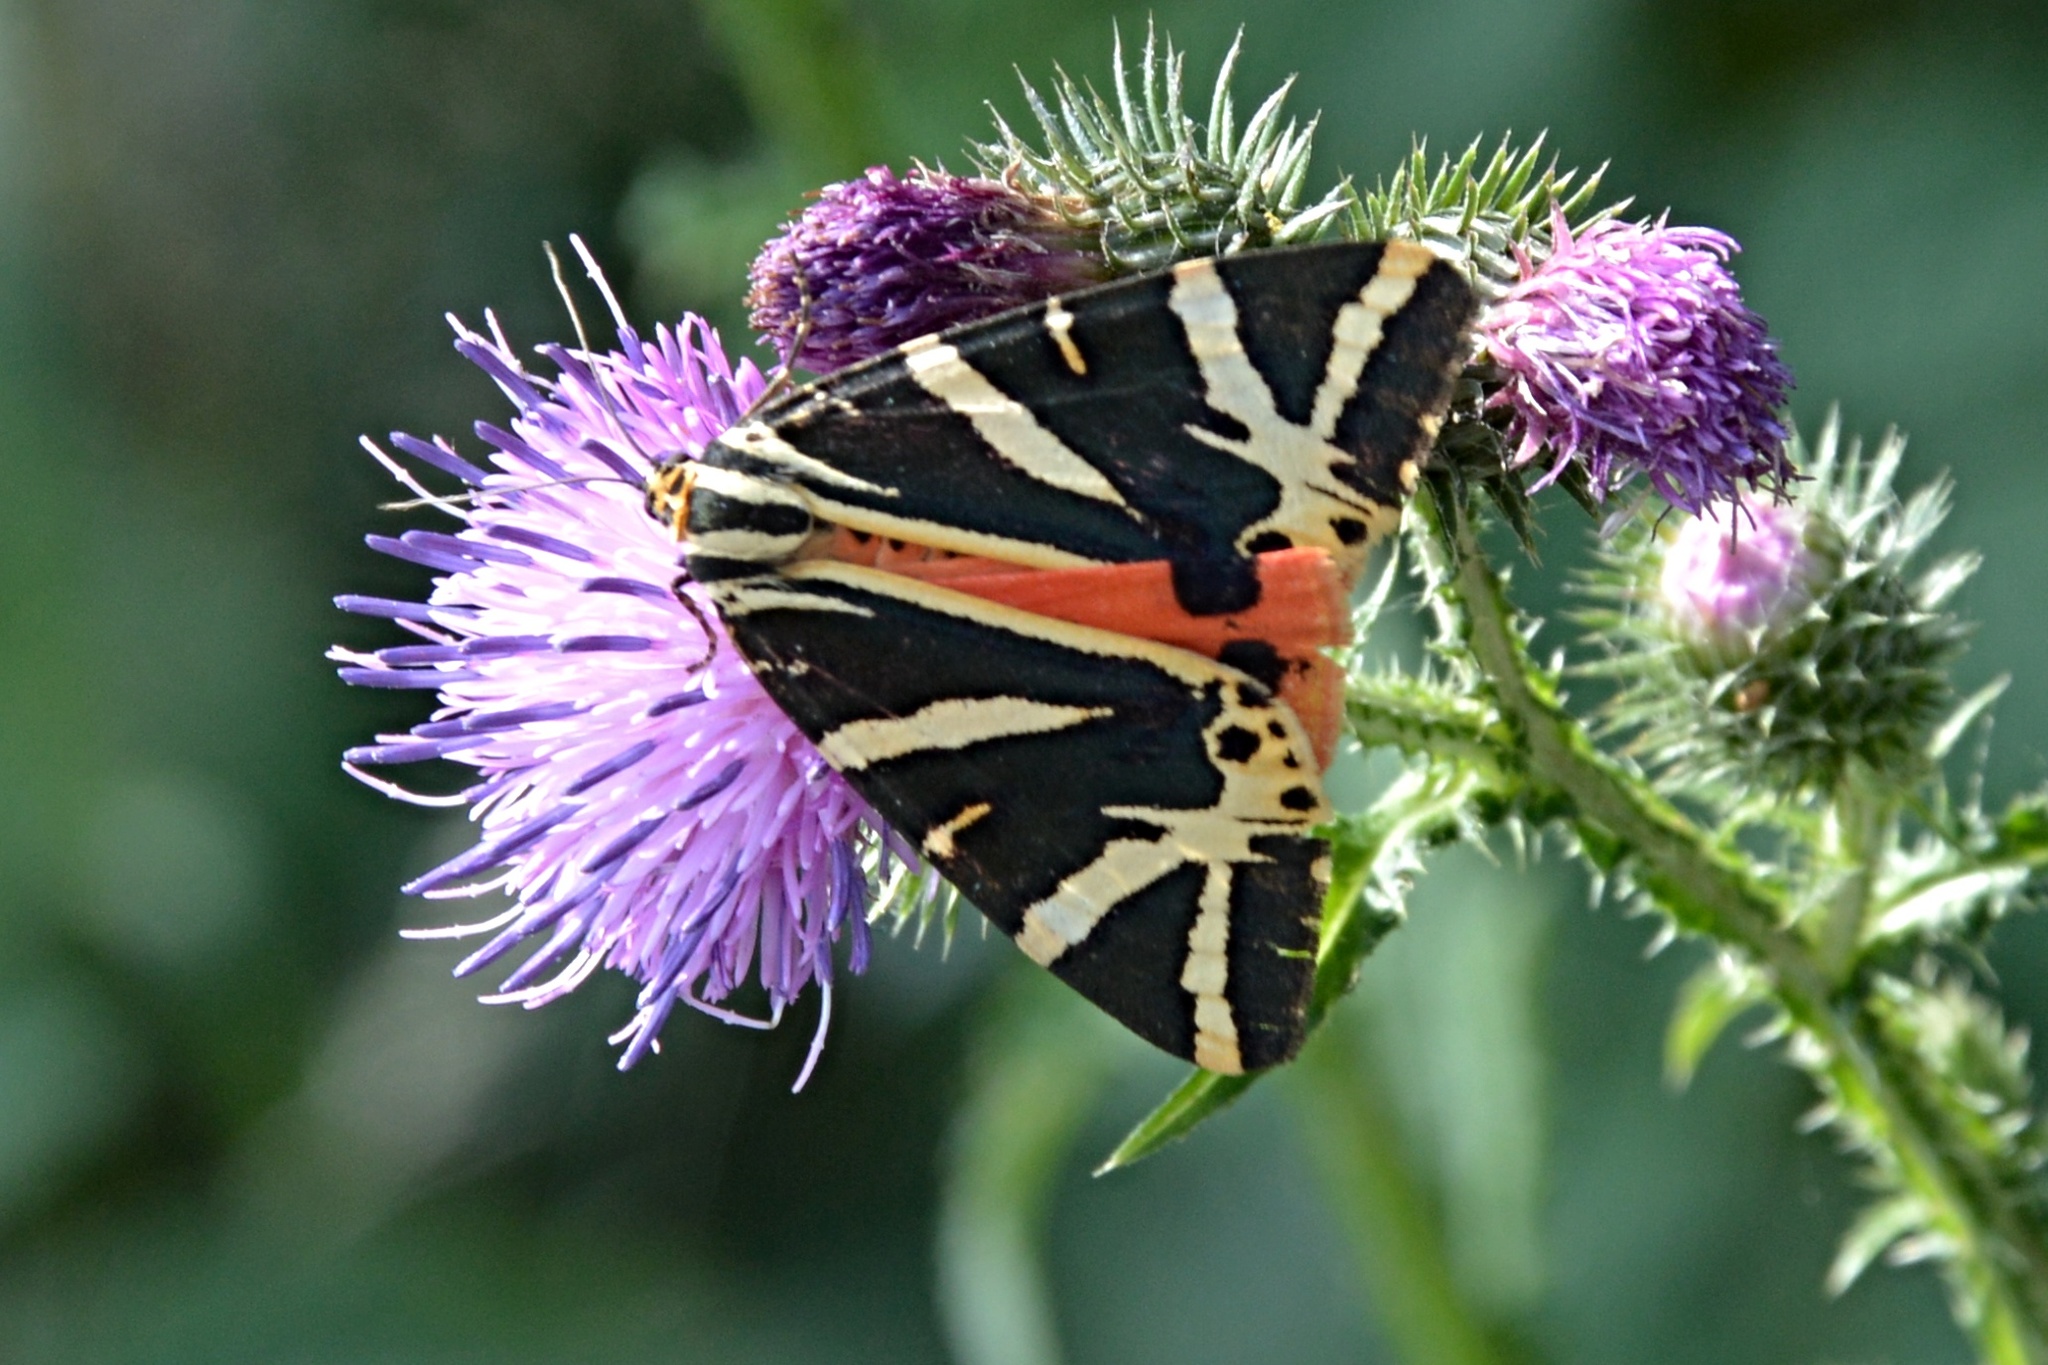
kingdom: Animalia
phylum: Arthropoda
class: Insecta
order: Lepidoptera
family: Erebidae
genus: Euplagia
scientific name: Euplagia quadripunctaria
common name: Jersey tiger
